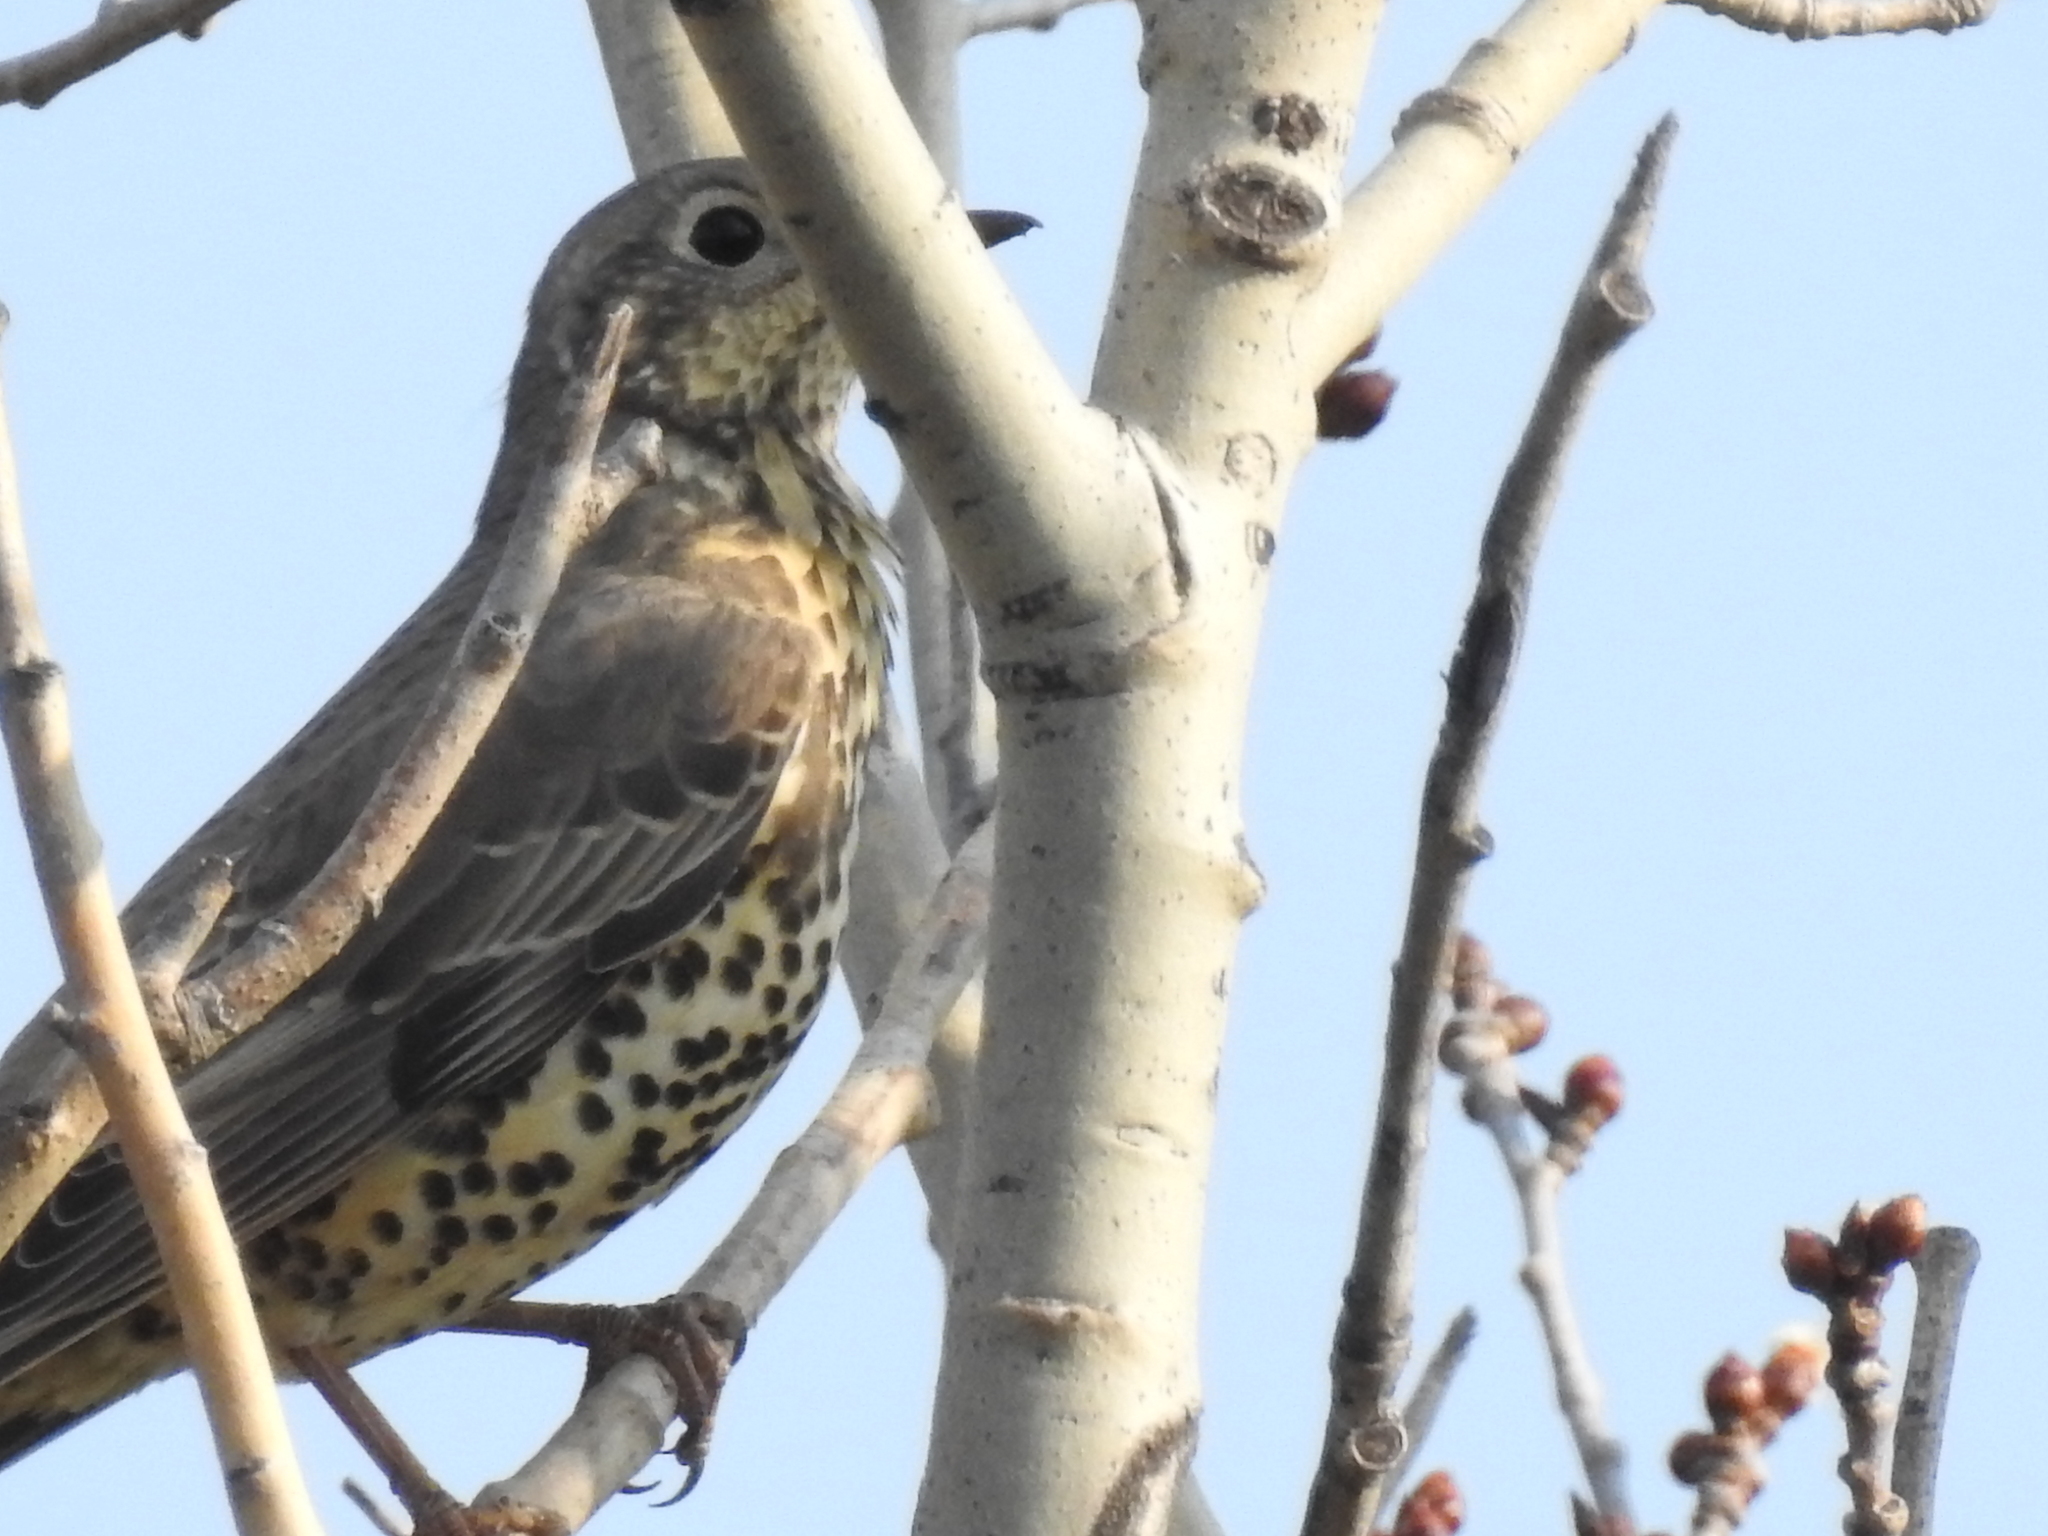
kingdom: Animalia
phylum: Chordata
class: Aves
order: Passeriformes
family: Turdidae
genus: Turdus
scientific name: Turdus viscivorus
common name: Mistle thrush
